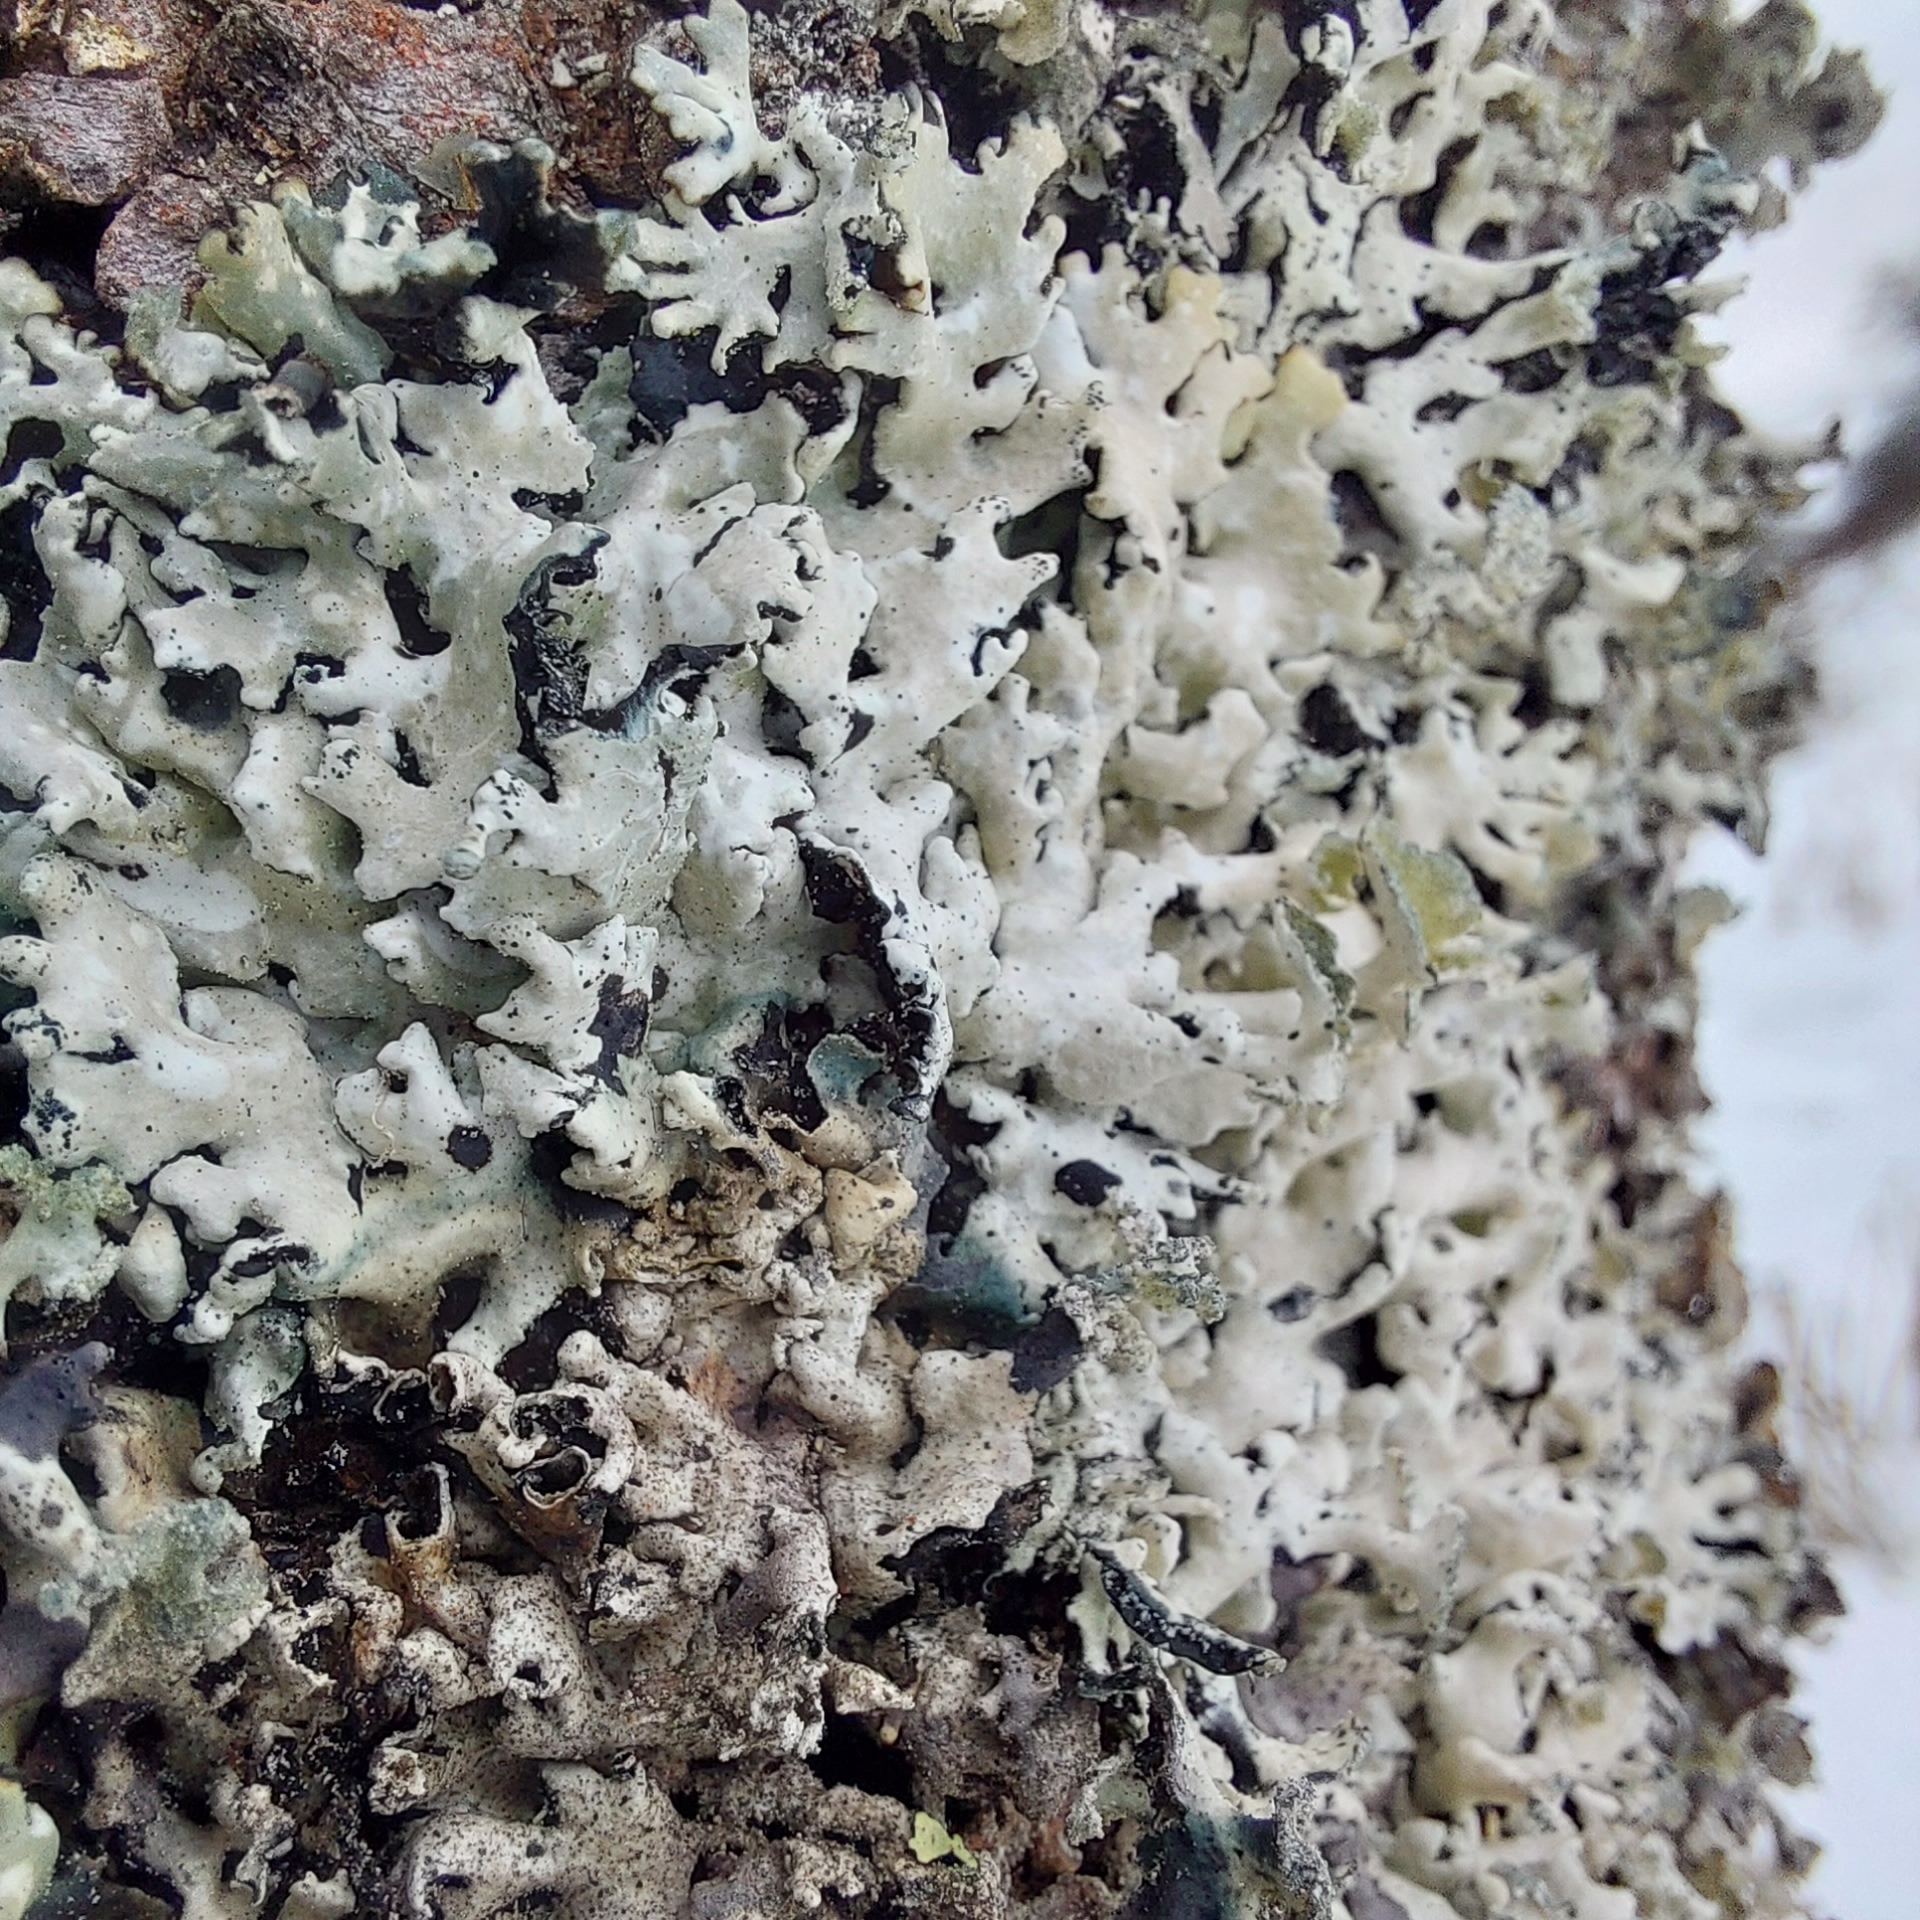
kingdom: Fungi
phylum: Ascomycota
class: Lecanoromycetes
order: Lecanorales
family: Parmeliaceae
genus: Hypogymnia
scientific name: Hypogymnia physodes
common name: Dark crottle
